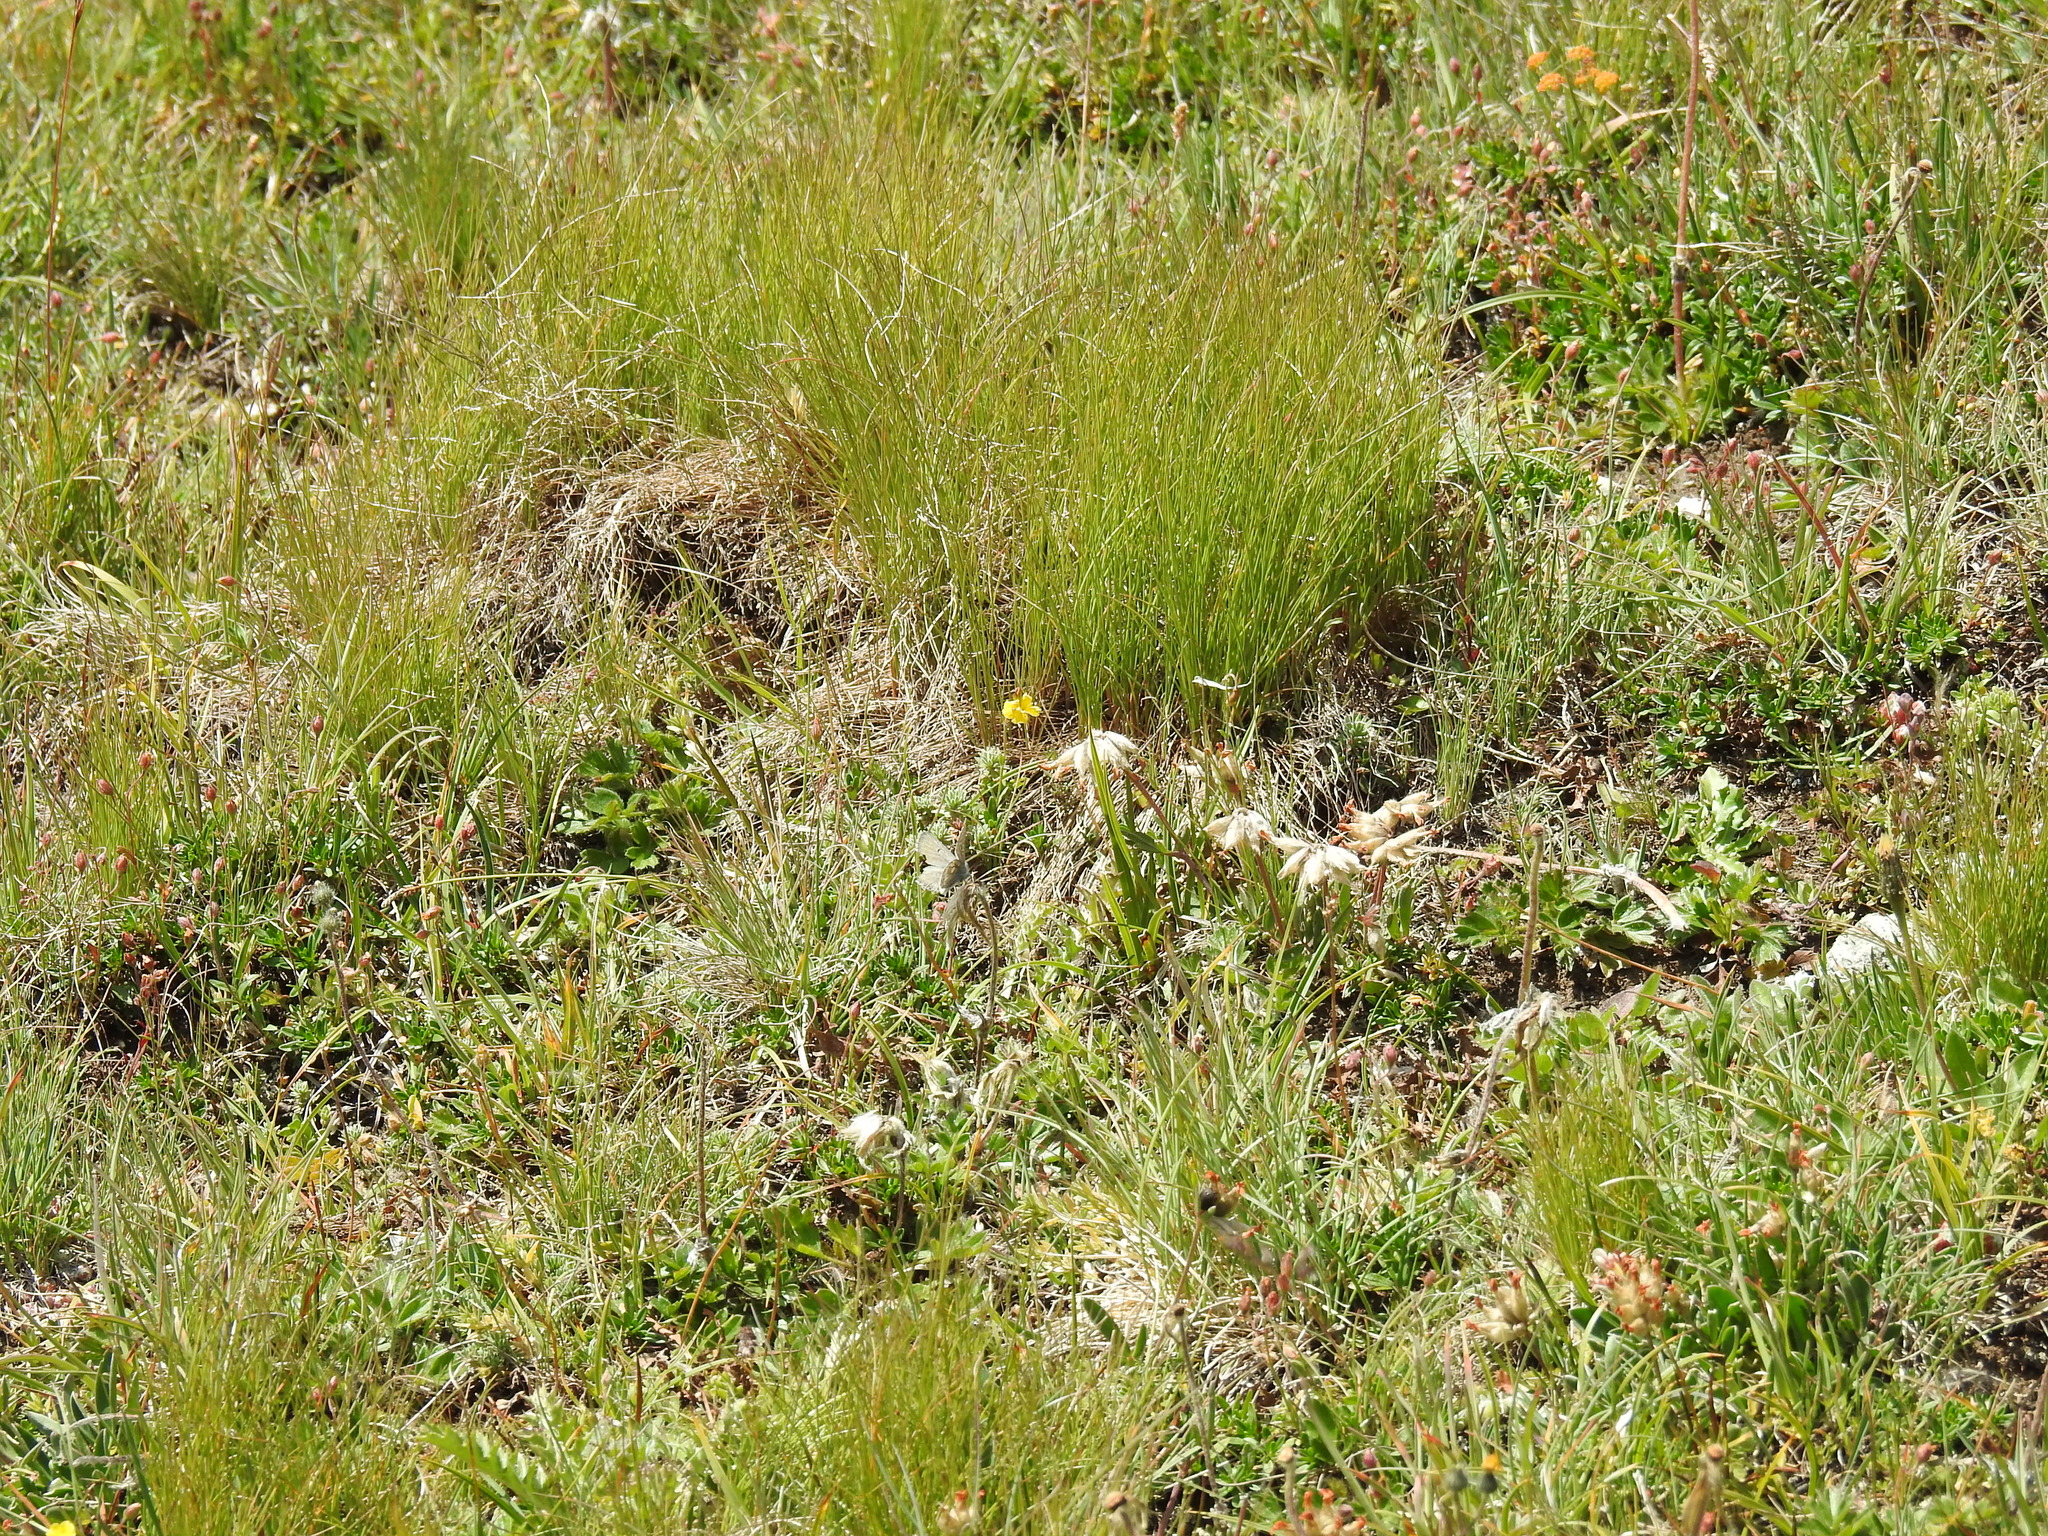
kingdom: Animalia
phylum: Arthropoda
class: Insecta
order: Lepidoptera
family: Lycaenidae
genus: Agriades
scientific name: Agriades glandon
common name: Glandon blue
